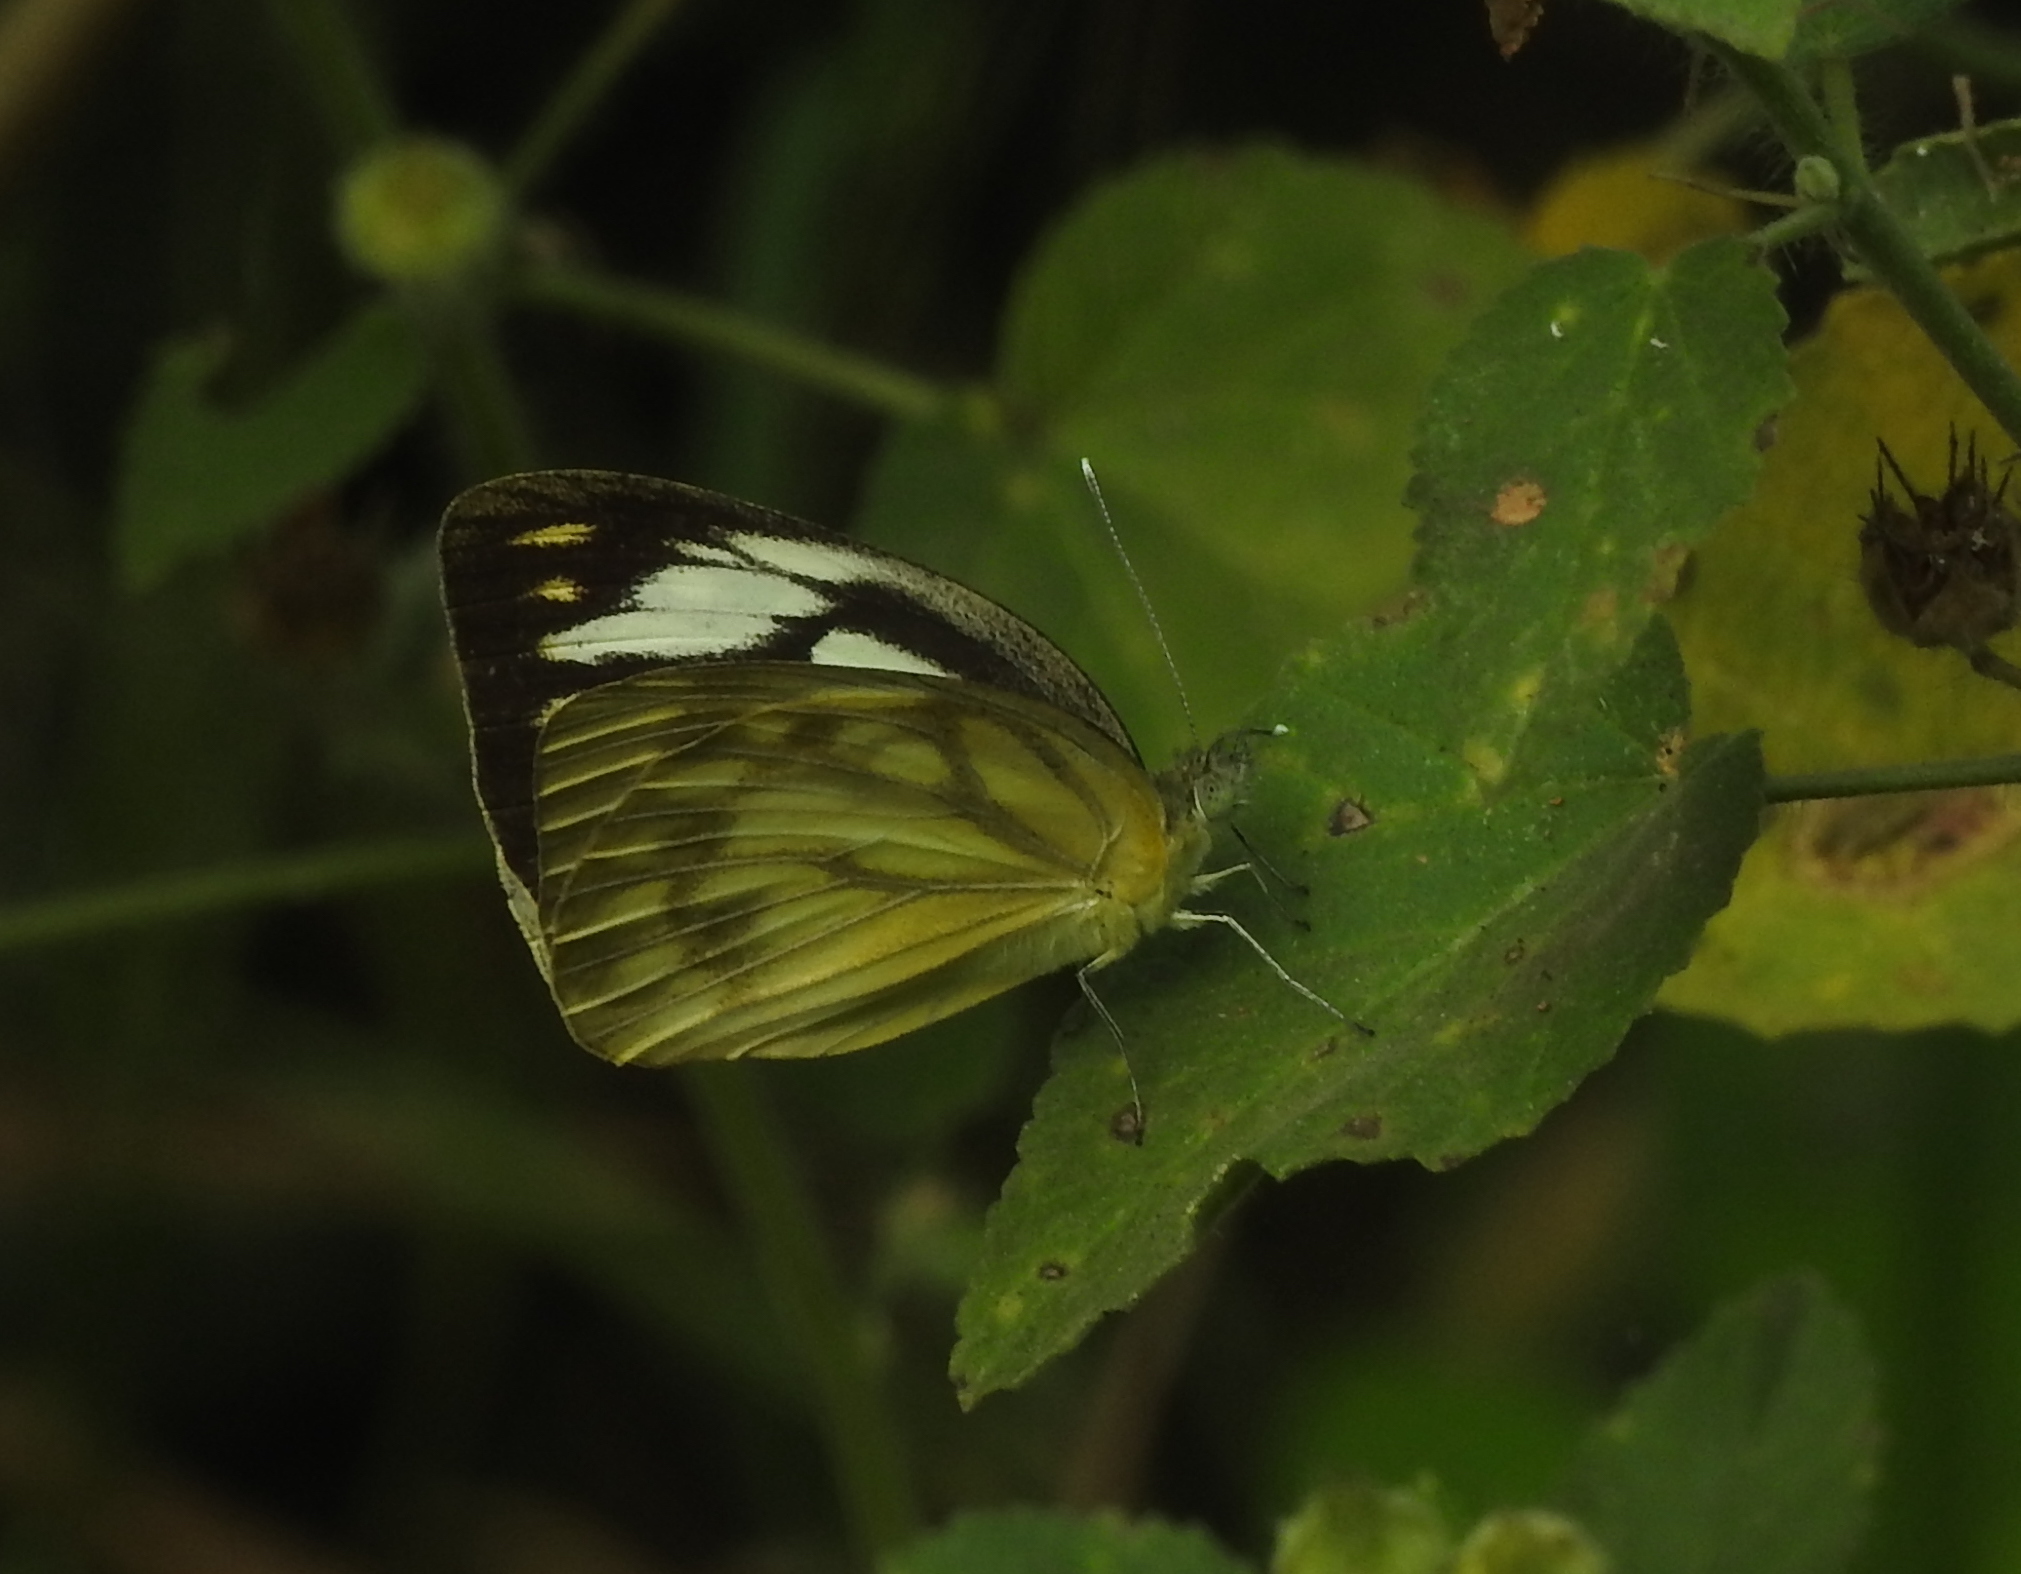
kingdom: Animalia
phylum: Arthropoda
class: Insecta
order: Lepidoptera
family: Pieridae
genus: Cepora
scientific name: Cepora nerissa
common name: Common gull
